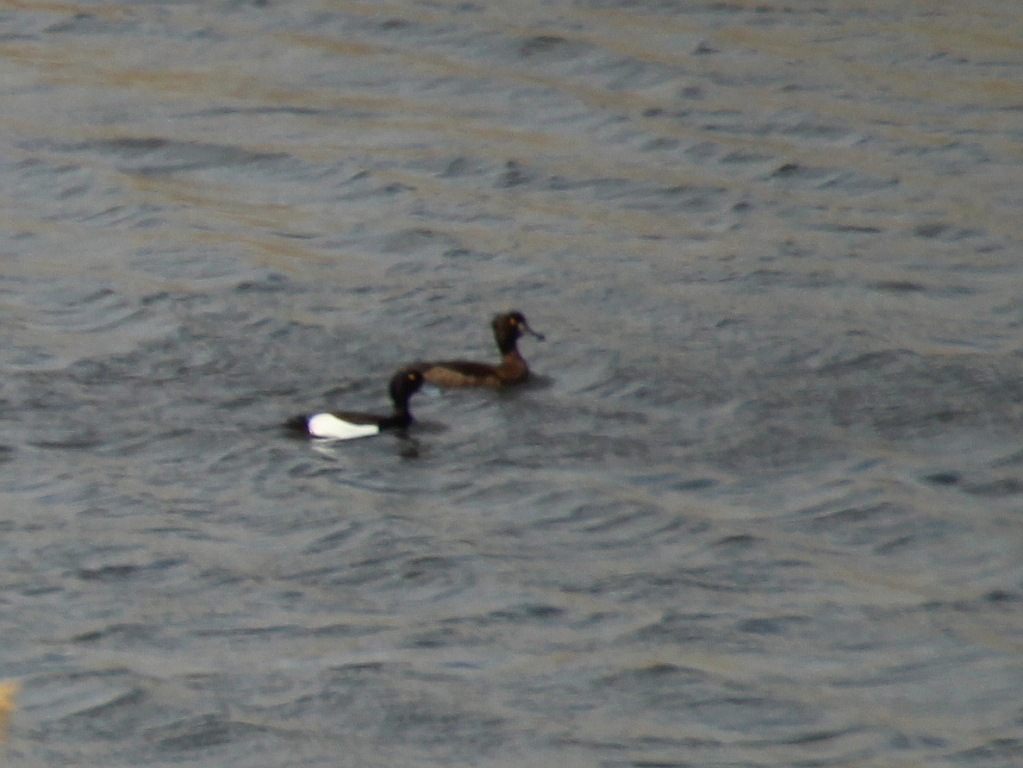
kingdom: Animalia
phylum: Chordata
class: Aves
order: Anseriformes
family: Anatidae
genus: Aythya
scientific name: Aythya fuligula
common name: Tufted duck
